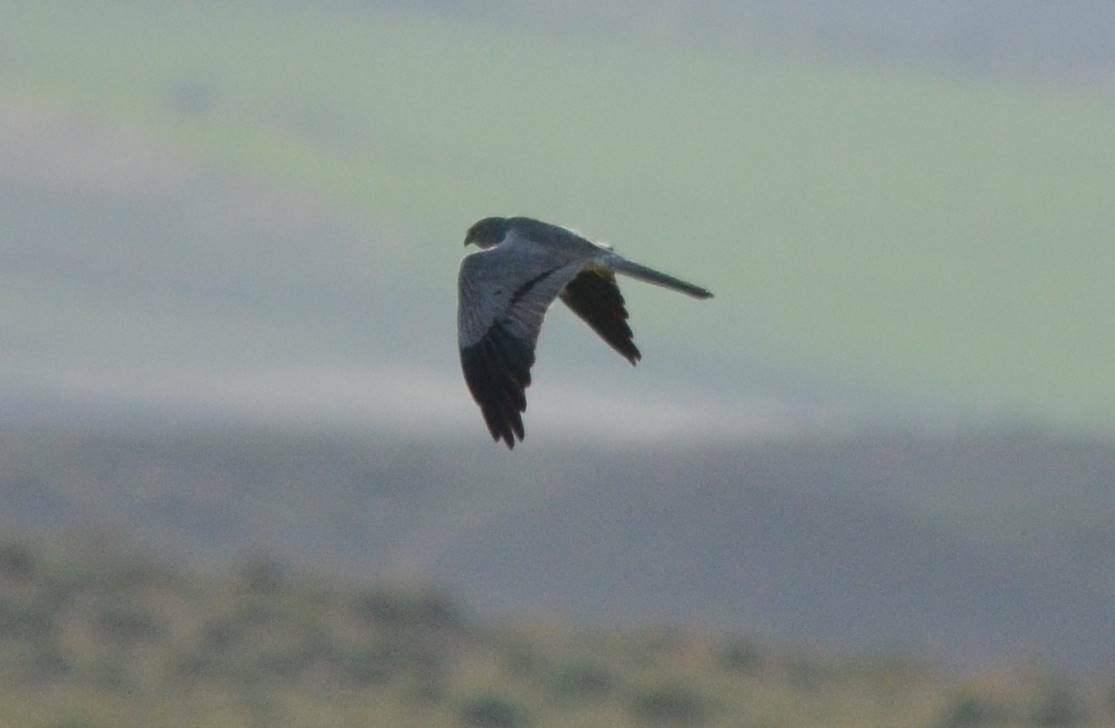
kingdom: Animalia
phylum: Chordata
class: Aves
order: Accipitriformes
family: Accipitridae
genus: Circus
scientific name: Circus pygargus
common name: Montagu's harrier
